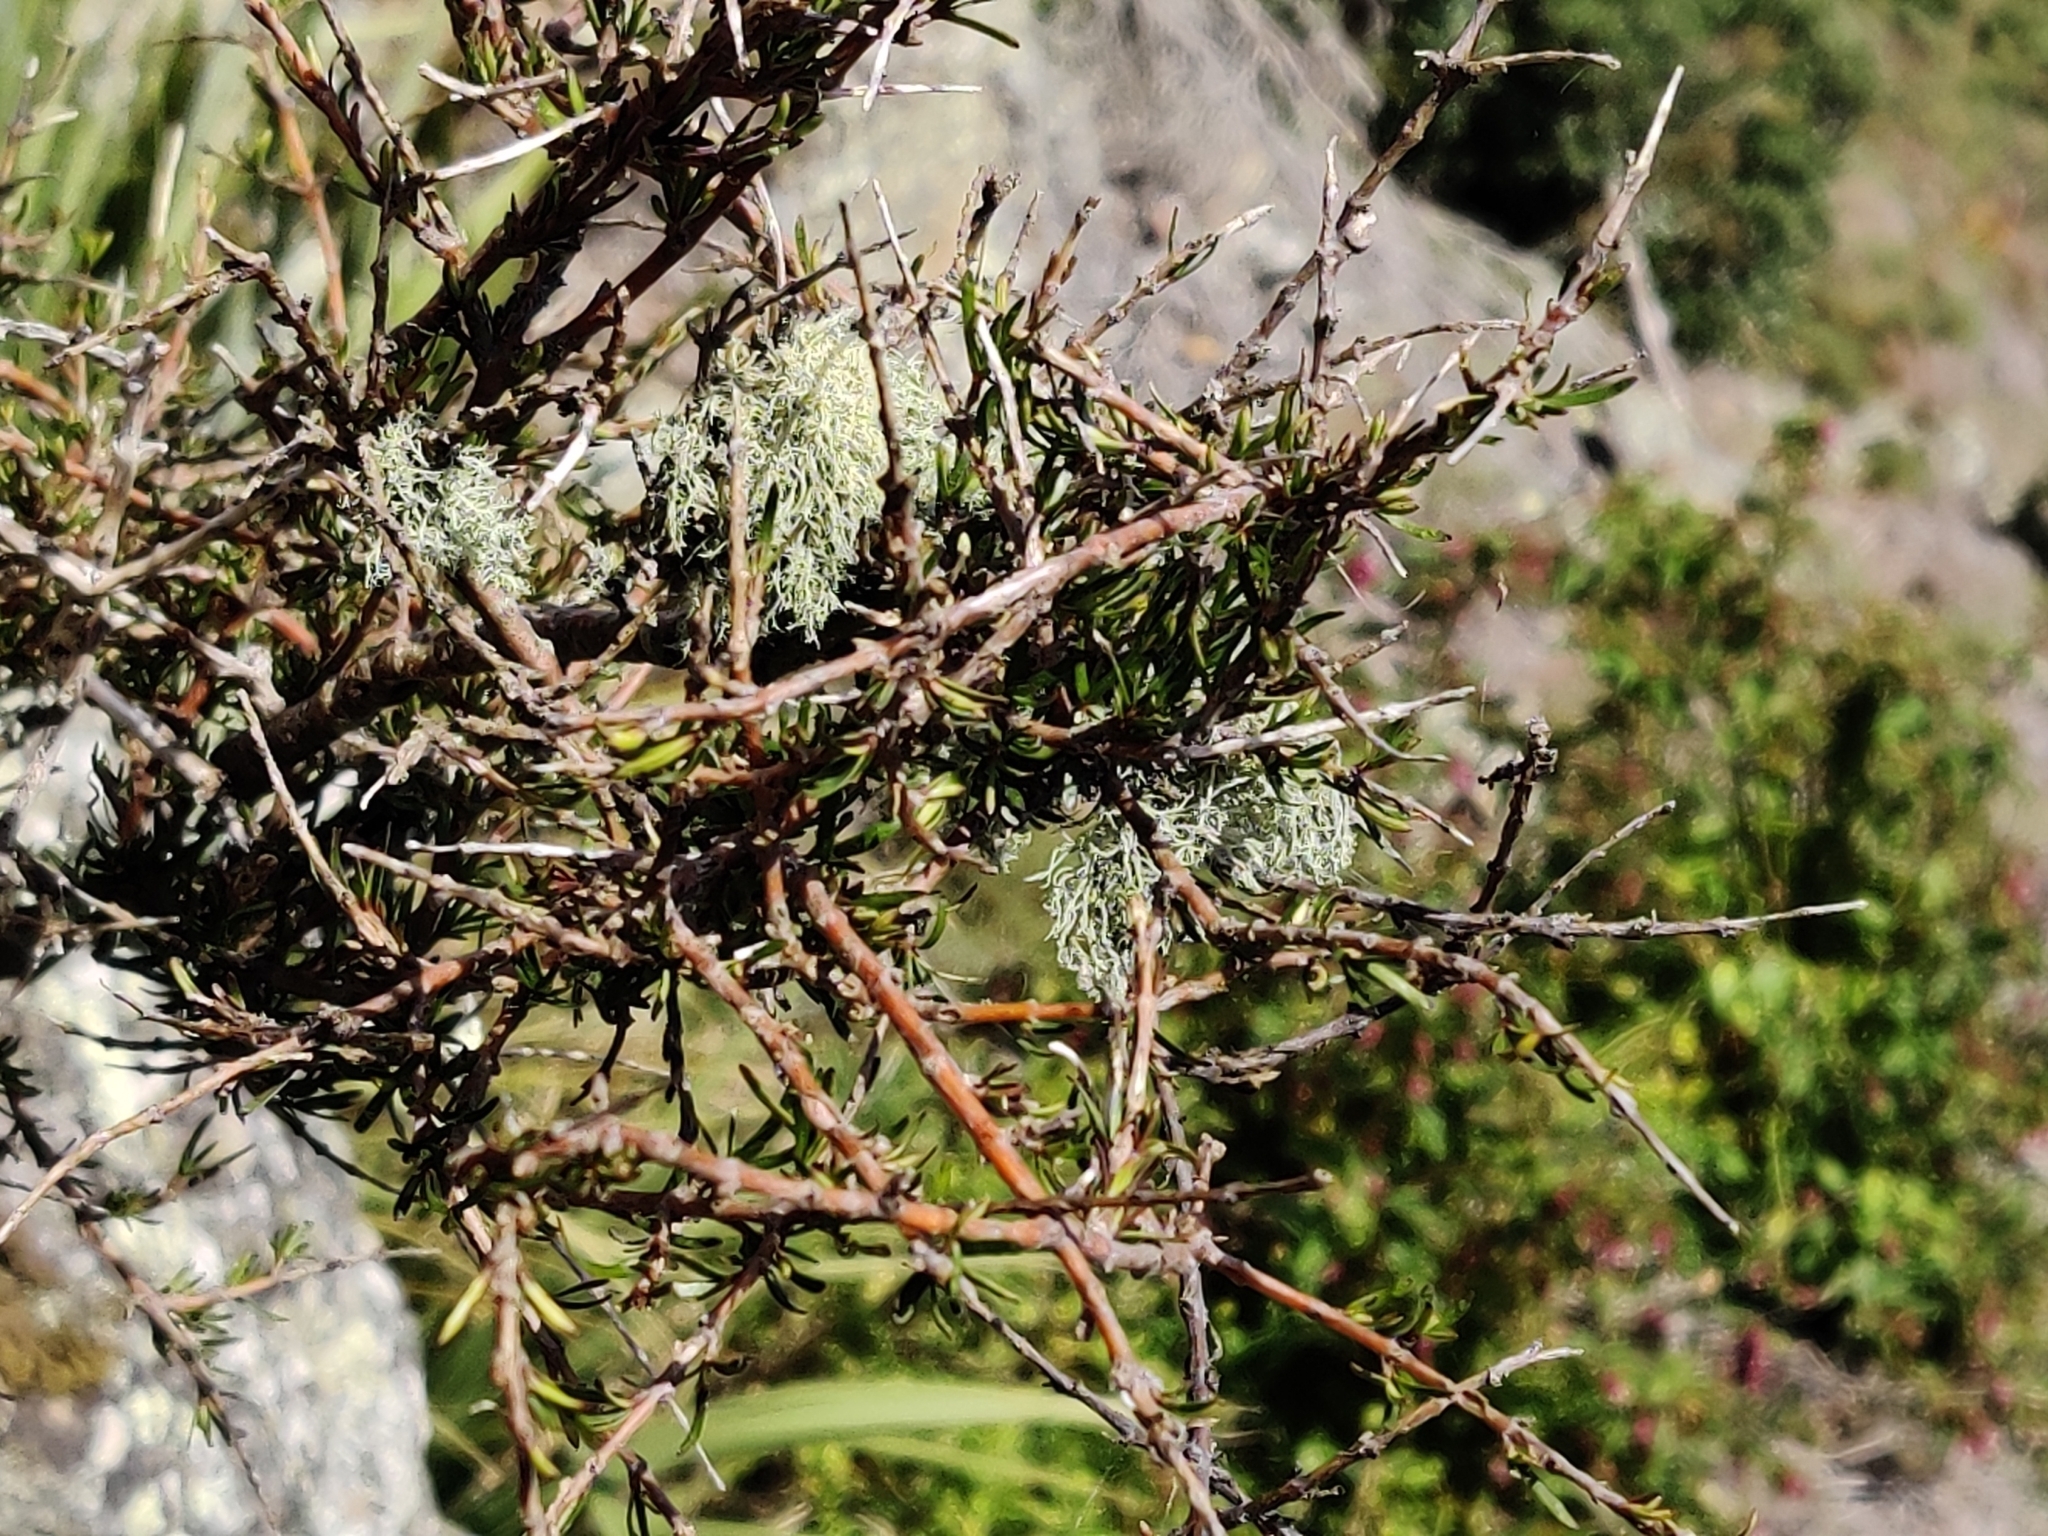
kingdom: Plantae
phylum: Tracheophyta
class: Magnoliopsida
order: Gentianales
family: Rubiaceae
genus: Coprosma
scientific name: Coprosma rugosa
